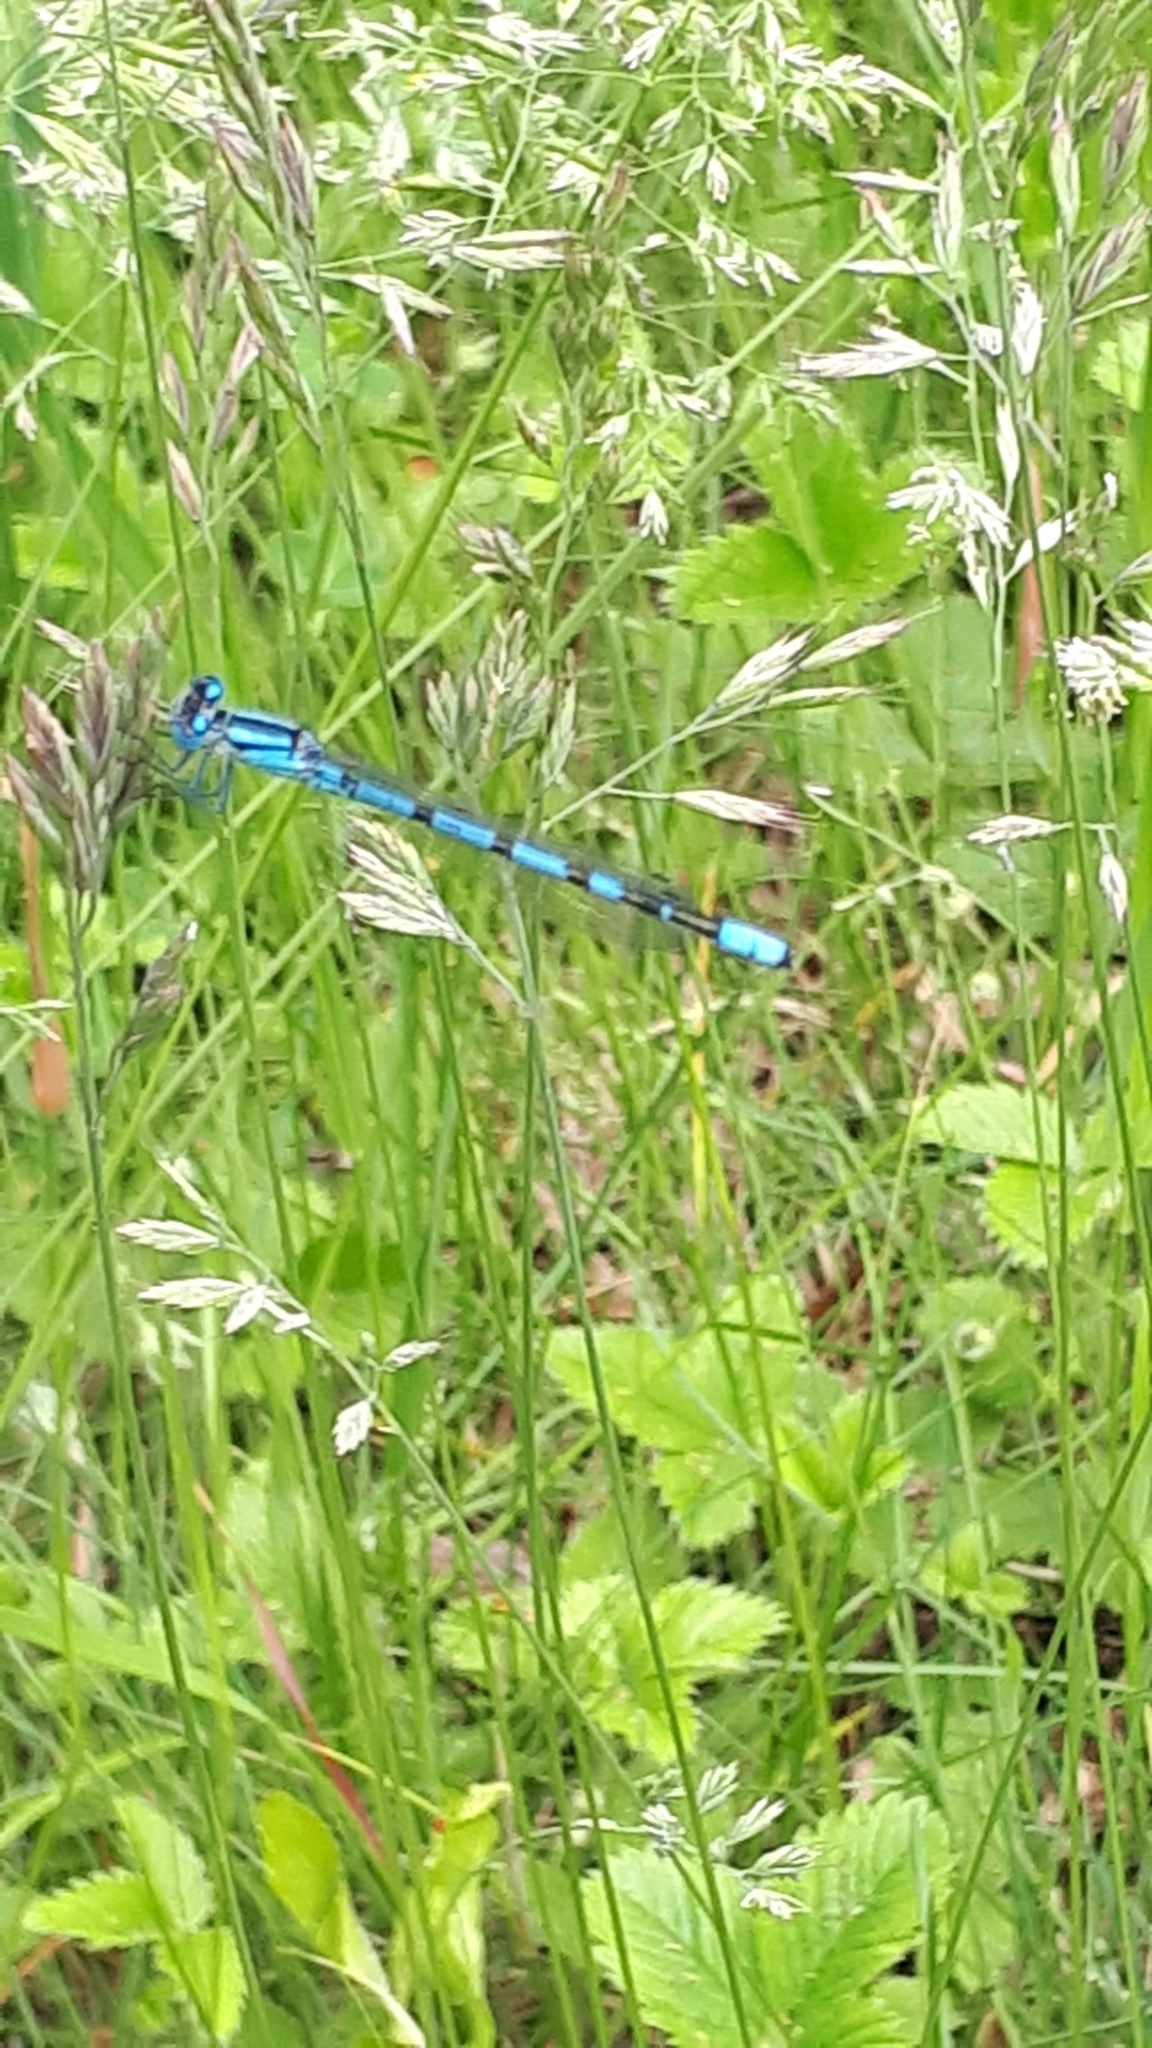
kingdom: Animalia
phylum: Arthropoda
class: Insecta
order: Odonata
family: Coenagrionidae
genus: Enallagma
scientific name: Enallagma cyathigerum
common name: Common blue damselfly
